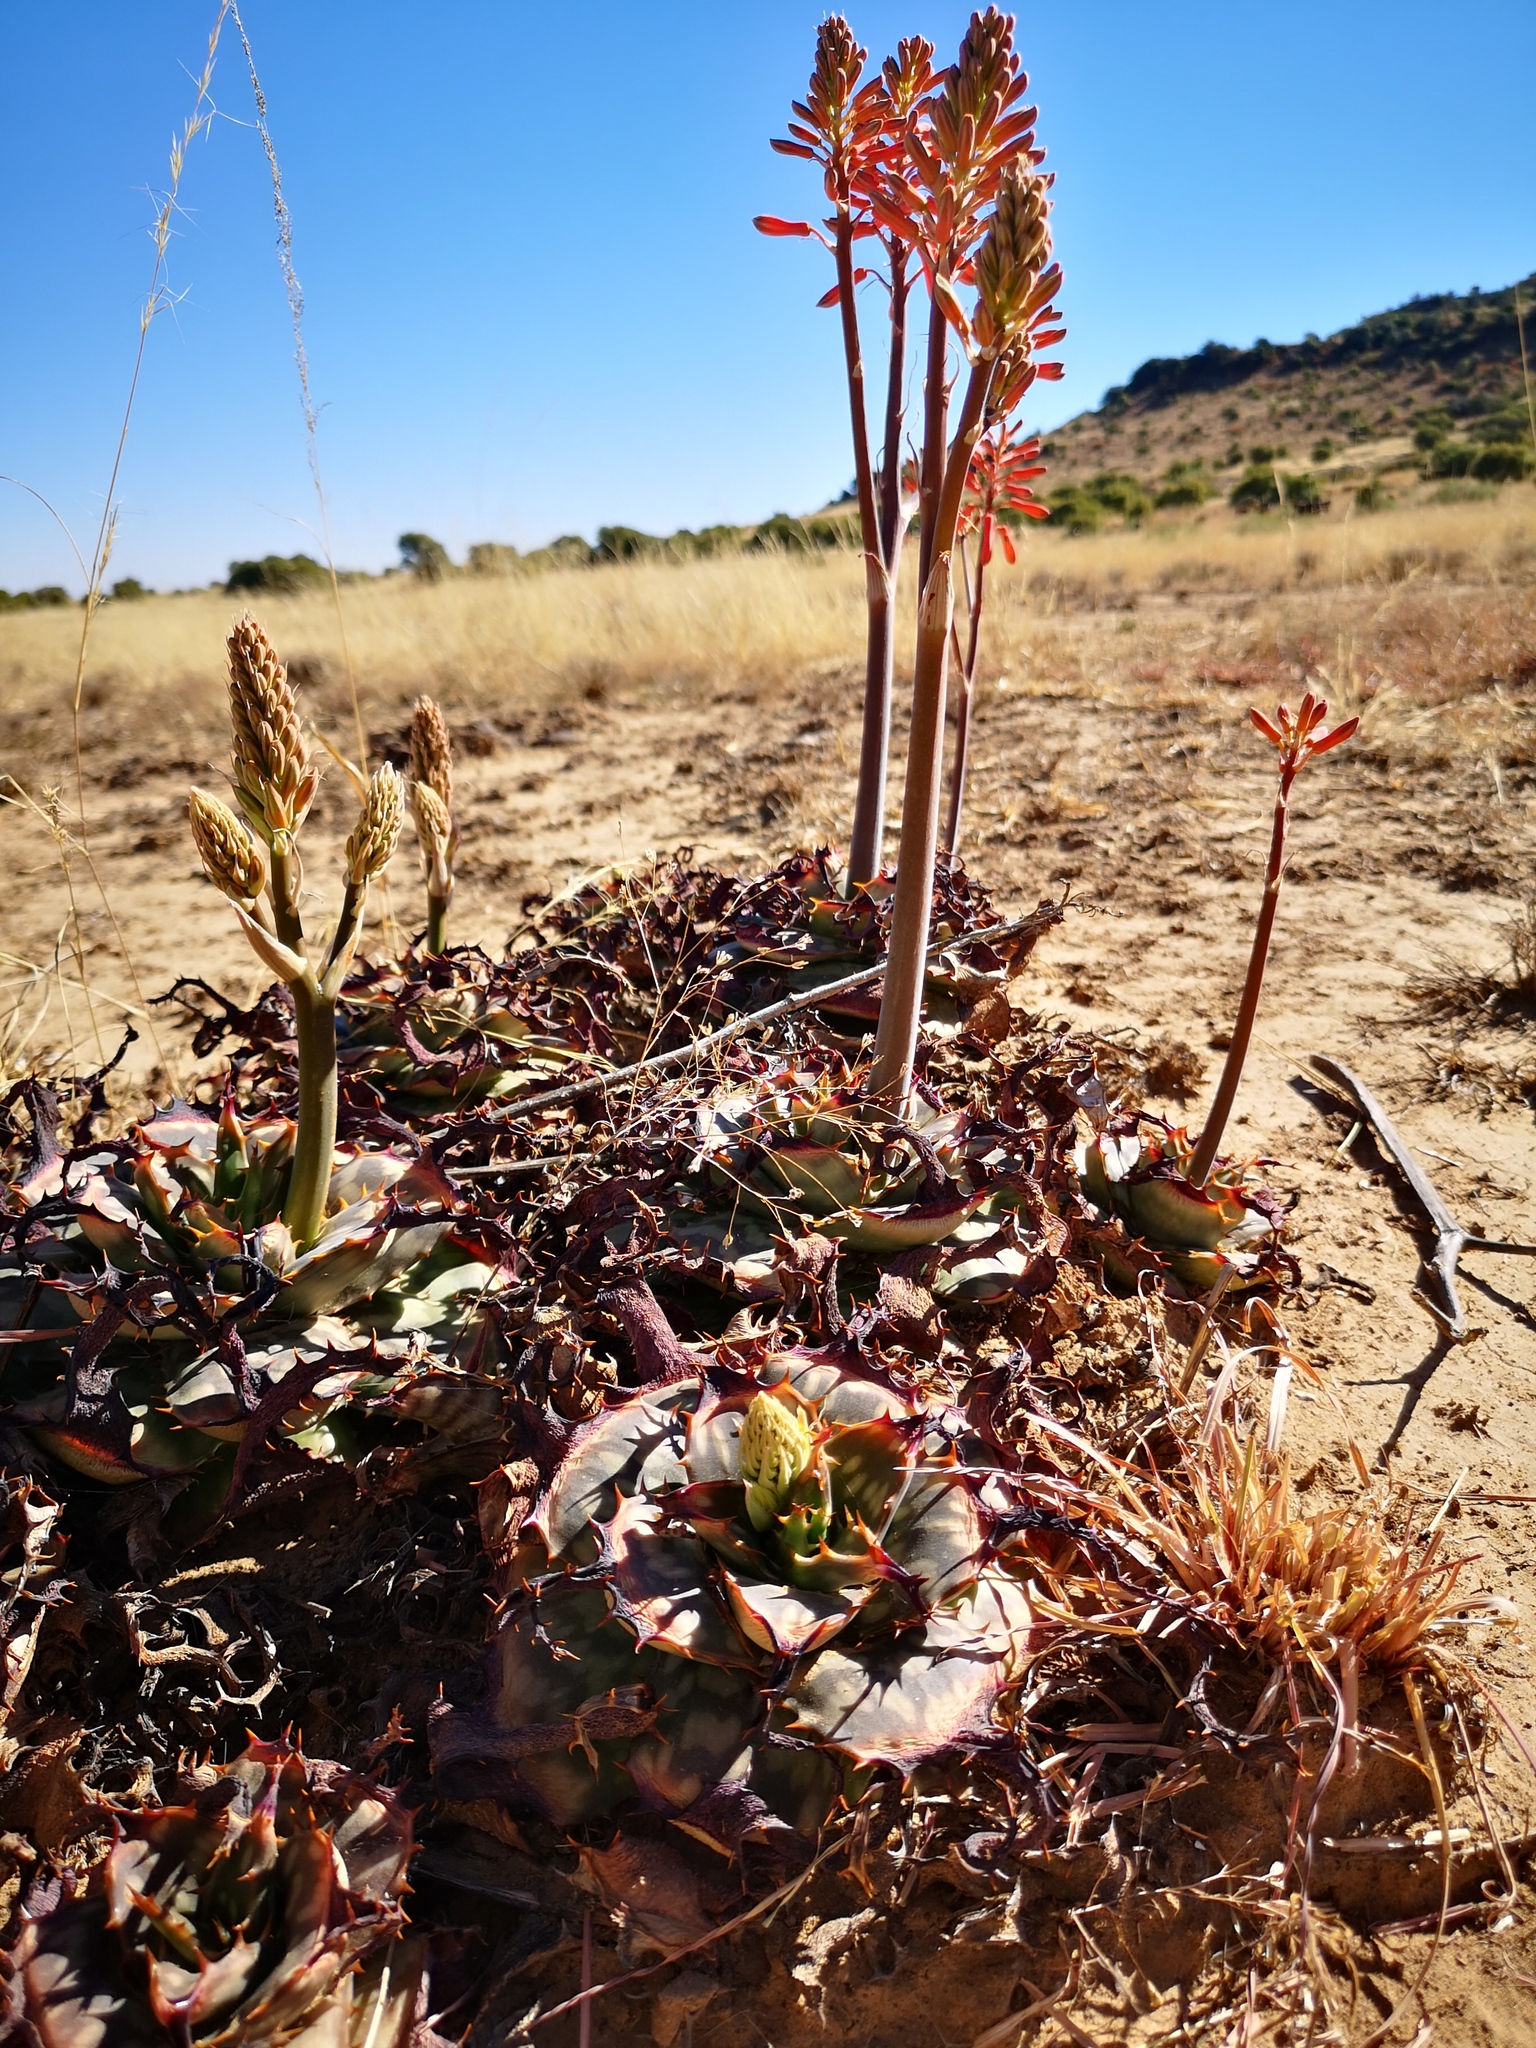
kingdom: Plantae
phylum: Tracheophyta
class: Liliopsida
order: Asparagales
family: Asphodelaceae
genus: Aloe
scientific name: Aloe grandidentata
